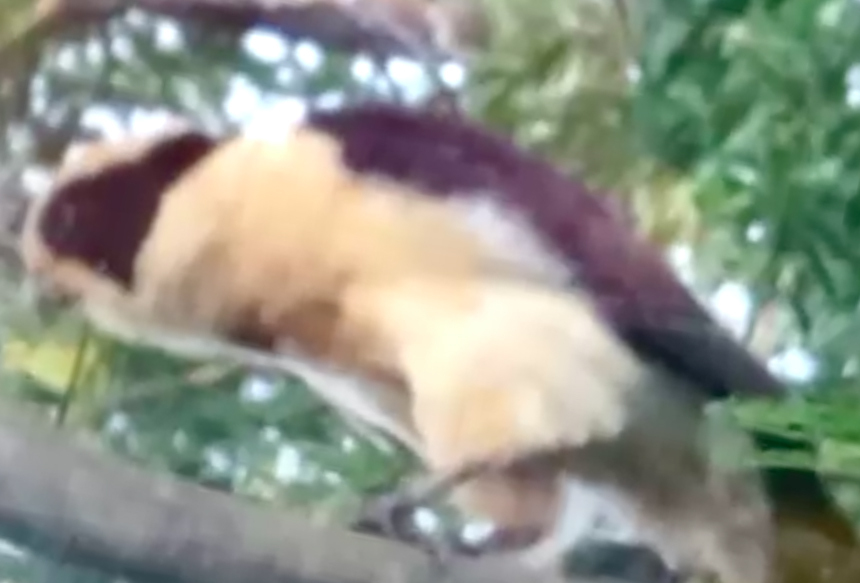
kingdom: Animalia
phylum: Chordata
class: Aves
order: Falconiformes
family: Falconidae
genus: Herpetotheres
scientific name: Herpetotheres cachinnans
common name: Laughing falcon
